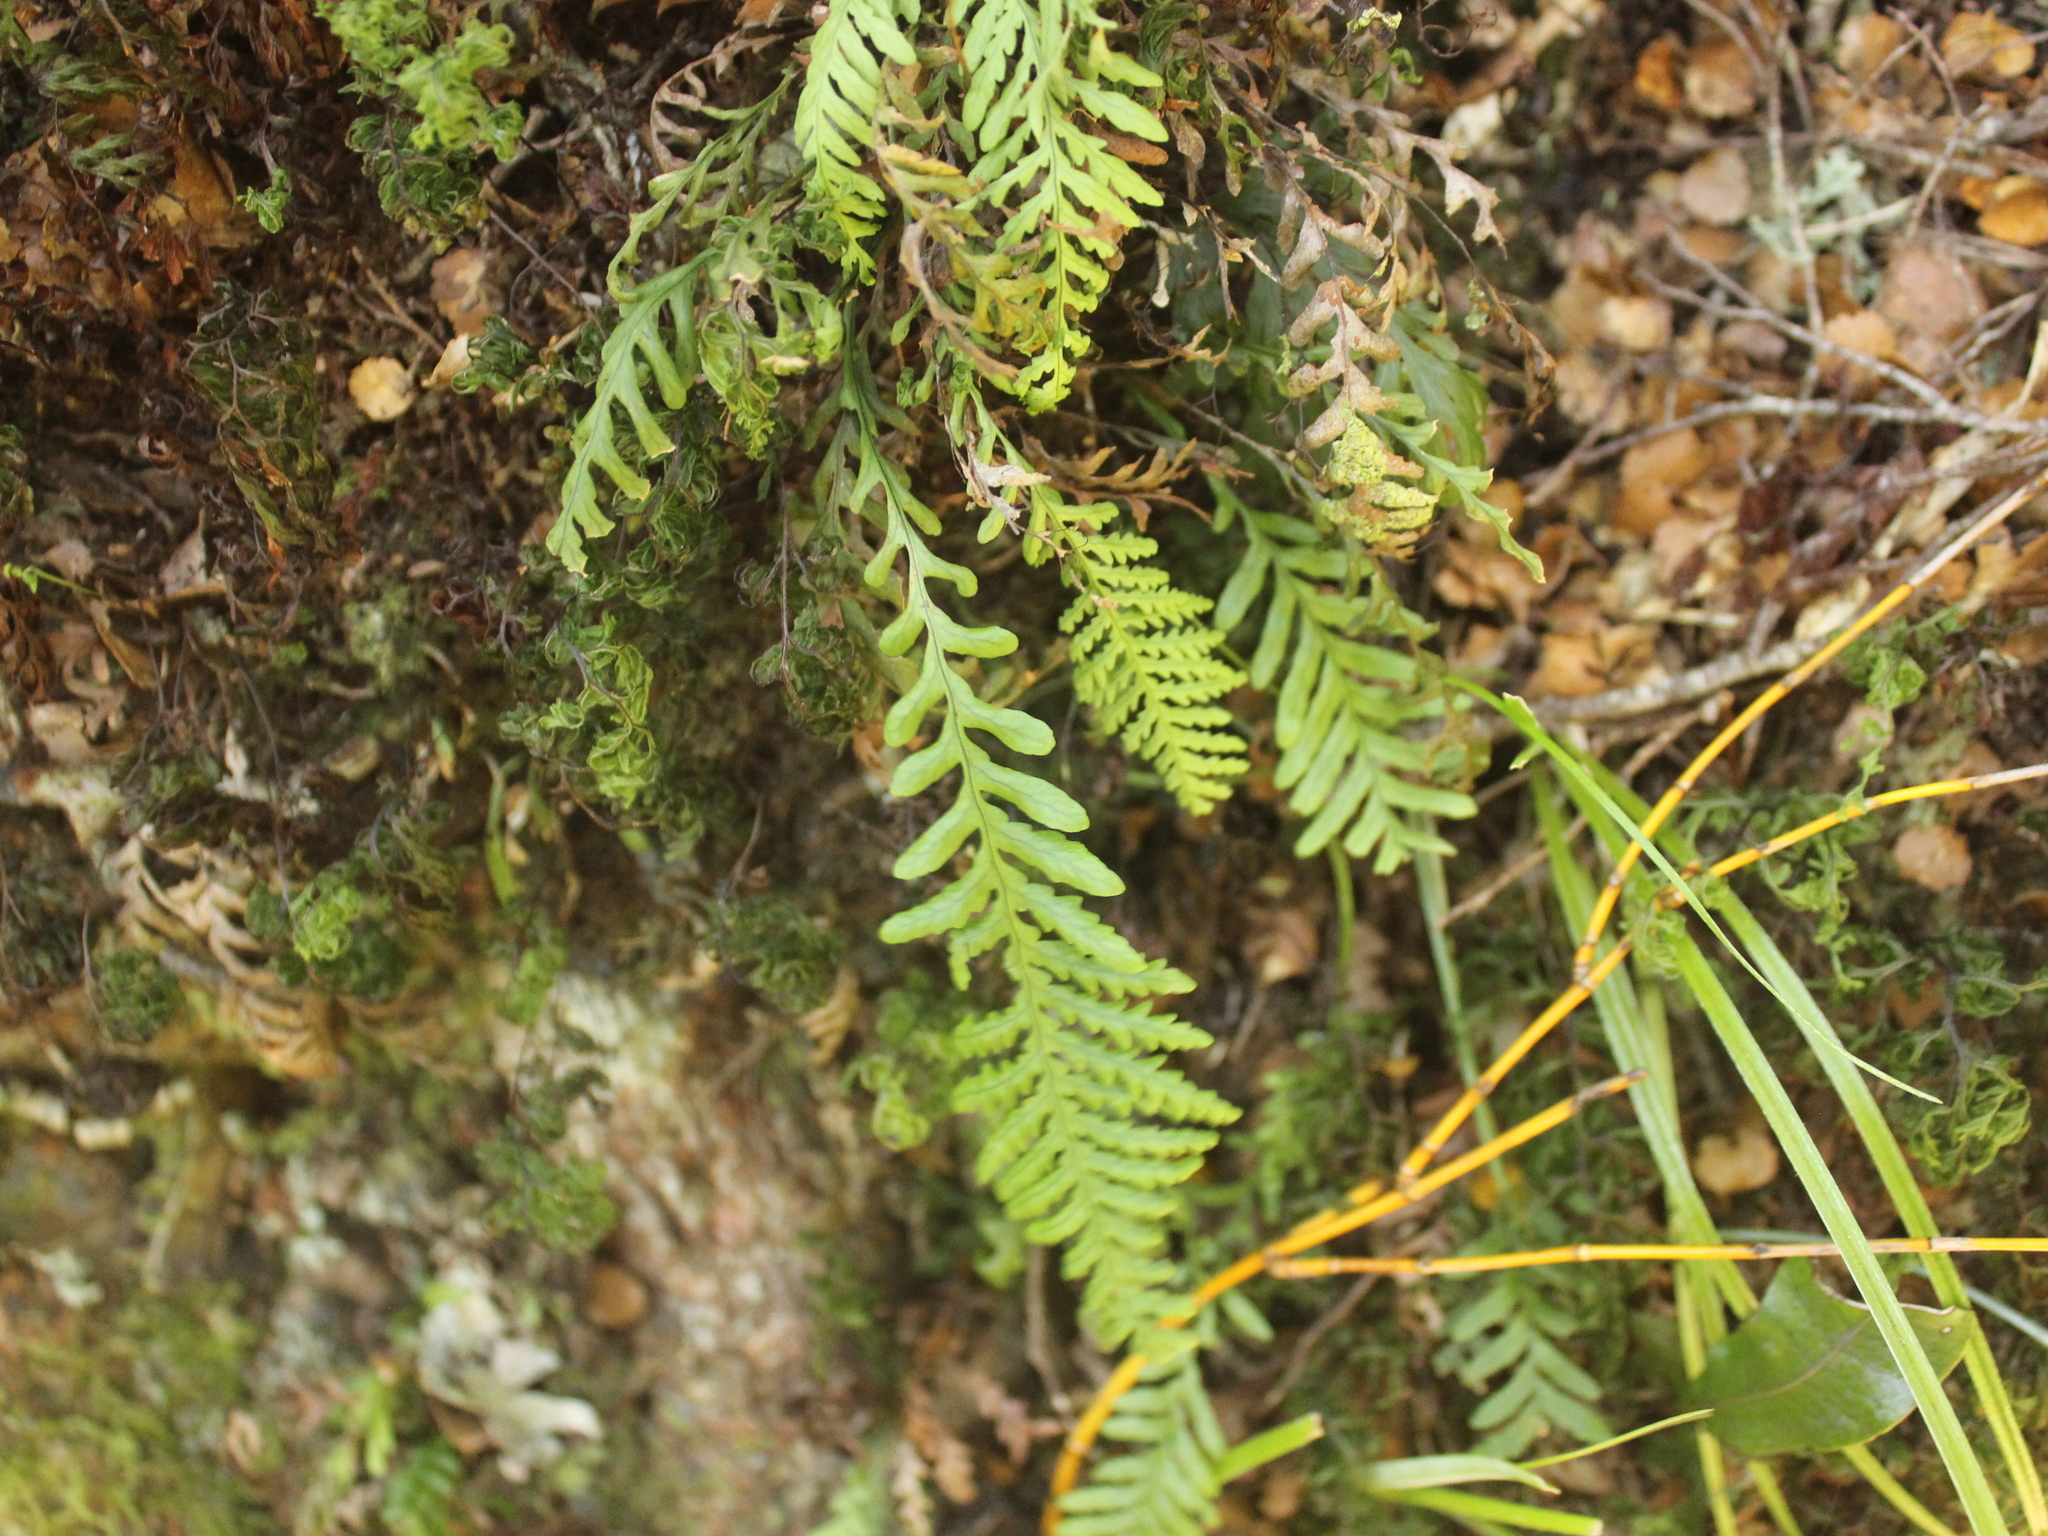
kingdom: Plantae
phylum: Tracheophyta
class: Polypodiopsida
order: Polypodiales
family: Polypodiaceae
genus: Notogrammitis
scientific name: Notogrammitis heterophylla
